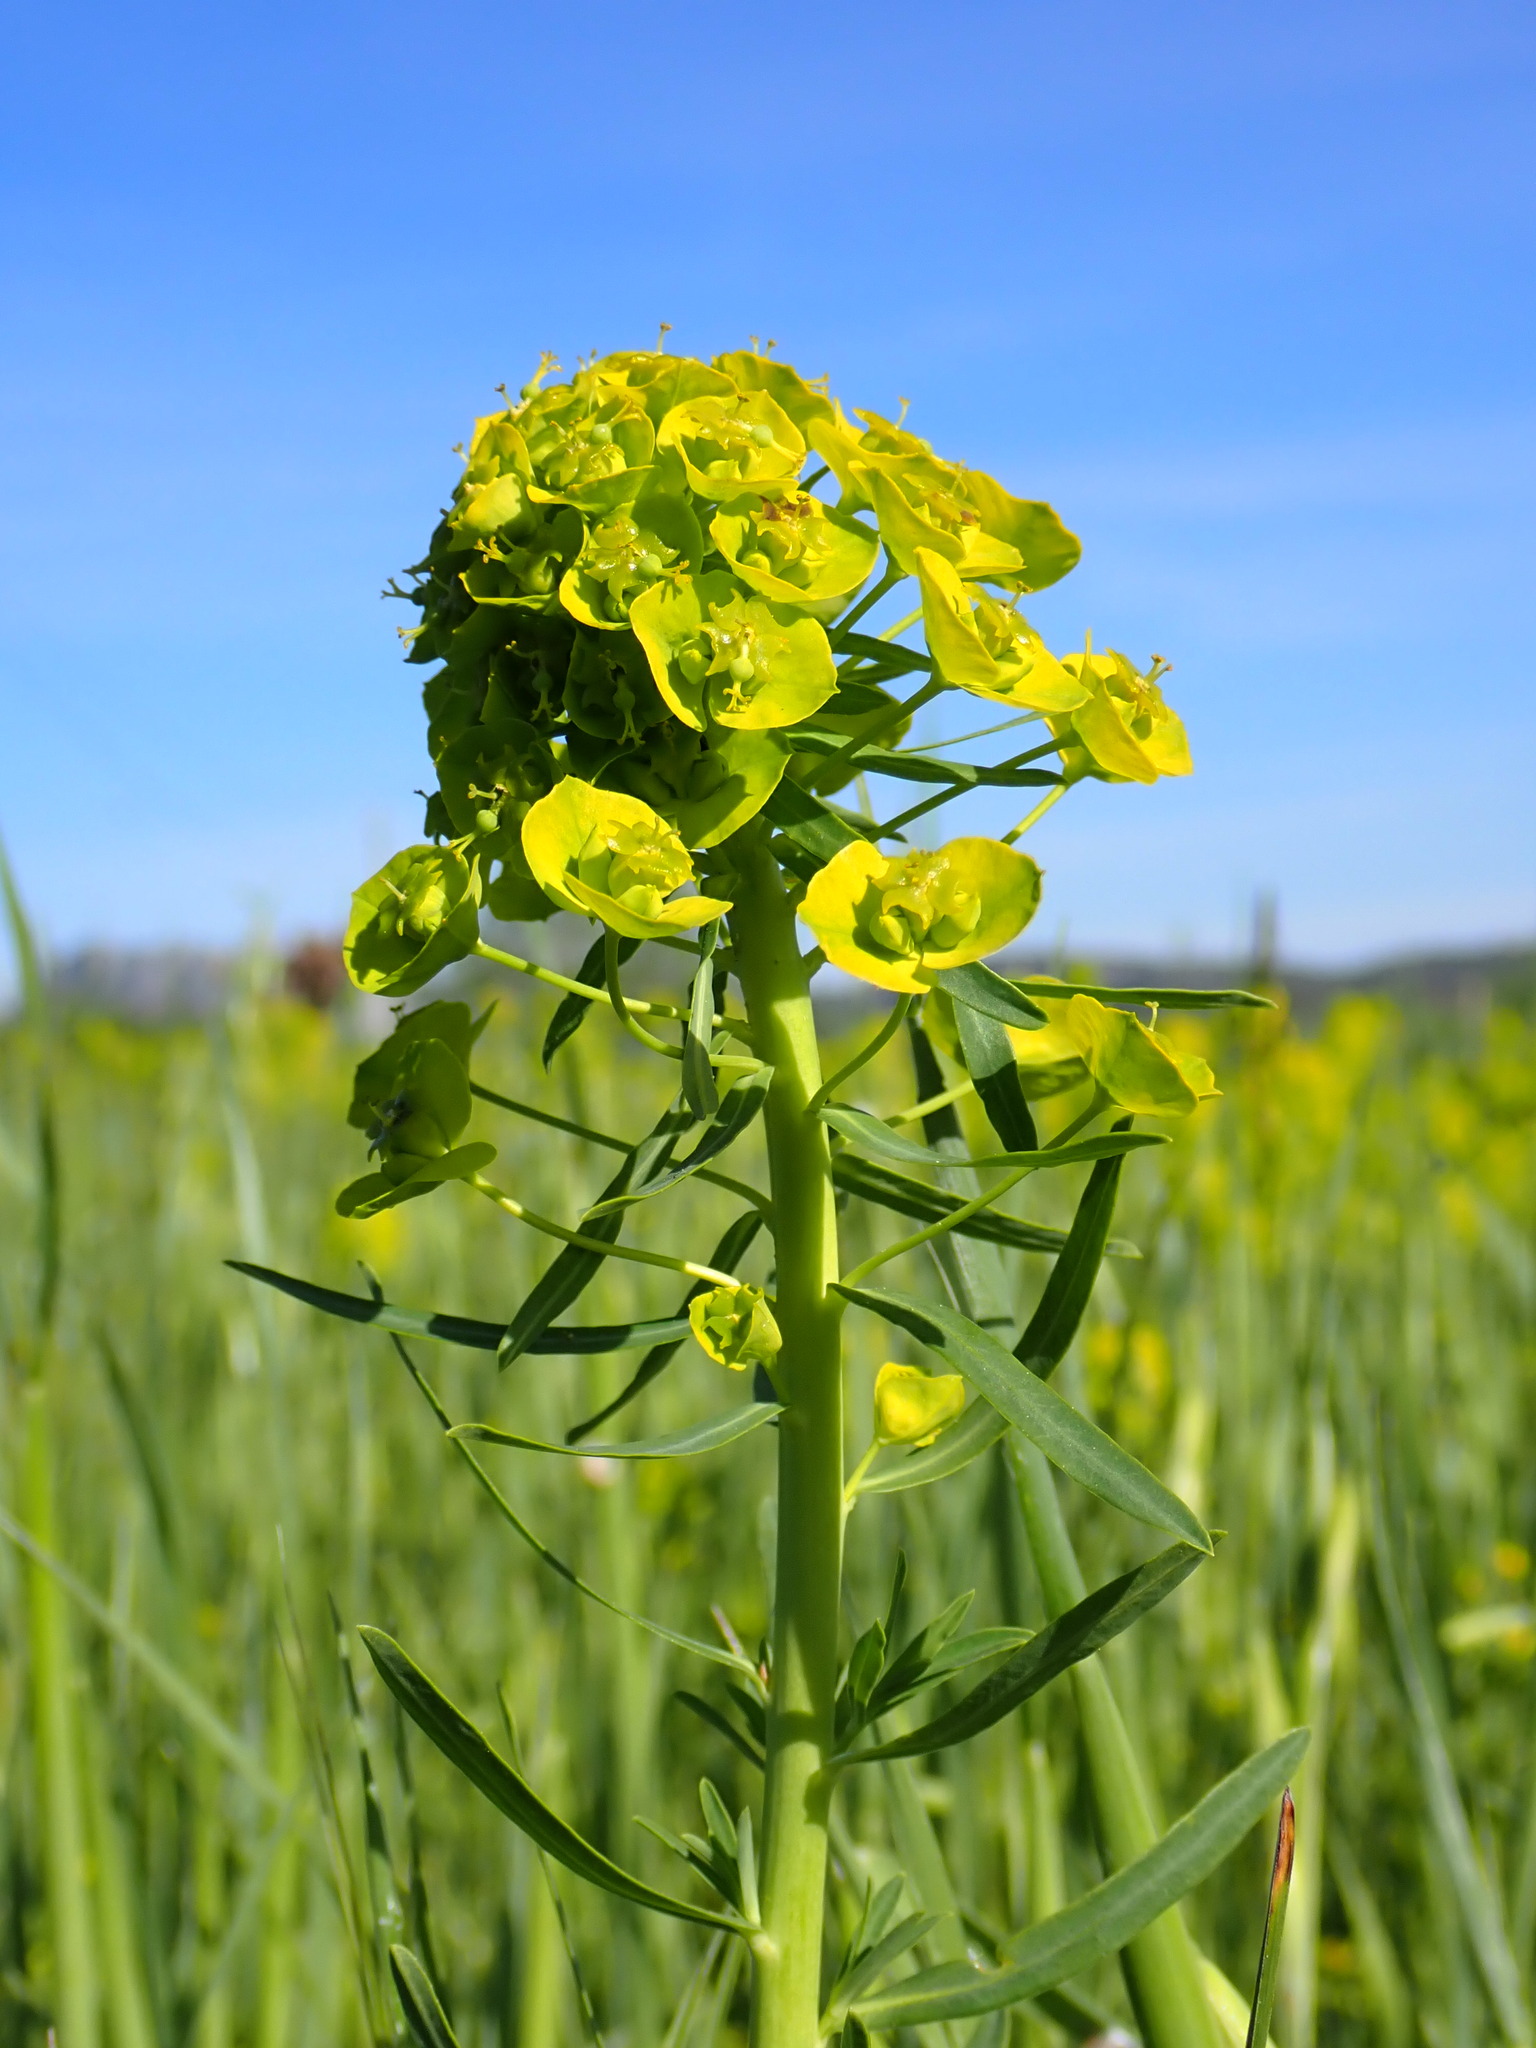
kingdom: Plantae
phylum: Tracheophyta
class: Magnoliopsida
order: Malpighiales
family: Euphorbiaceae
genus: Euphorbia
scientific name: Euphorbia esula
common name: Leafy spurge
